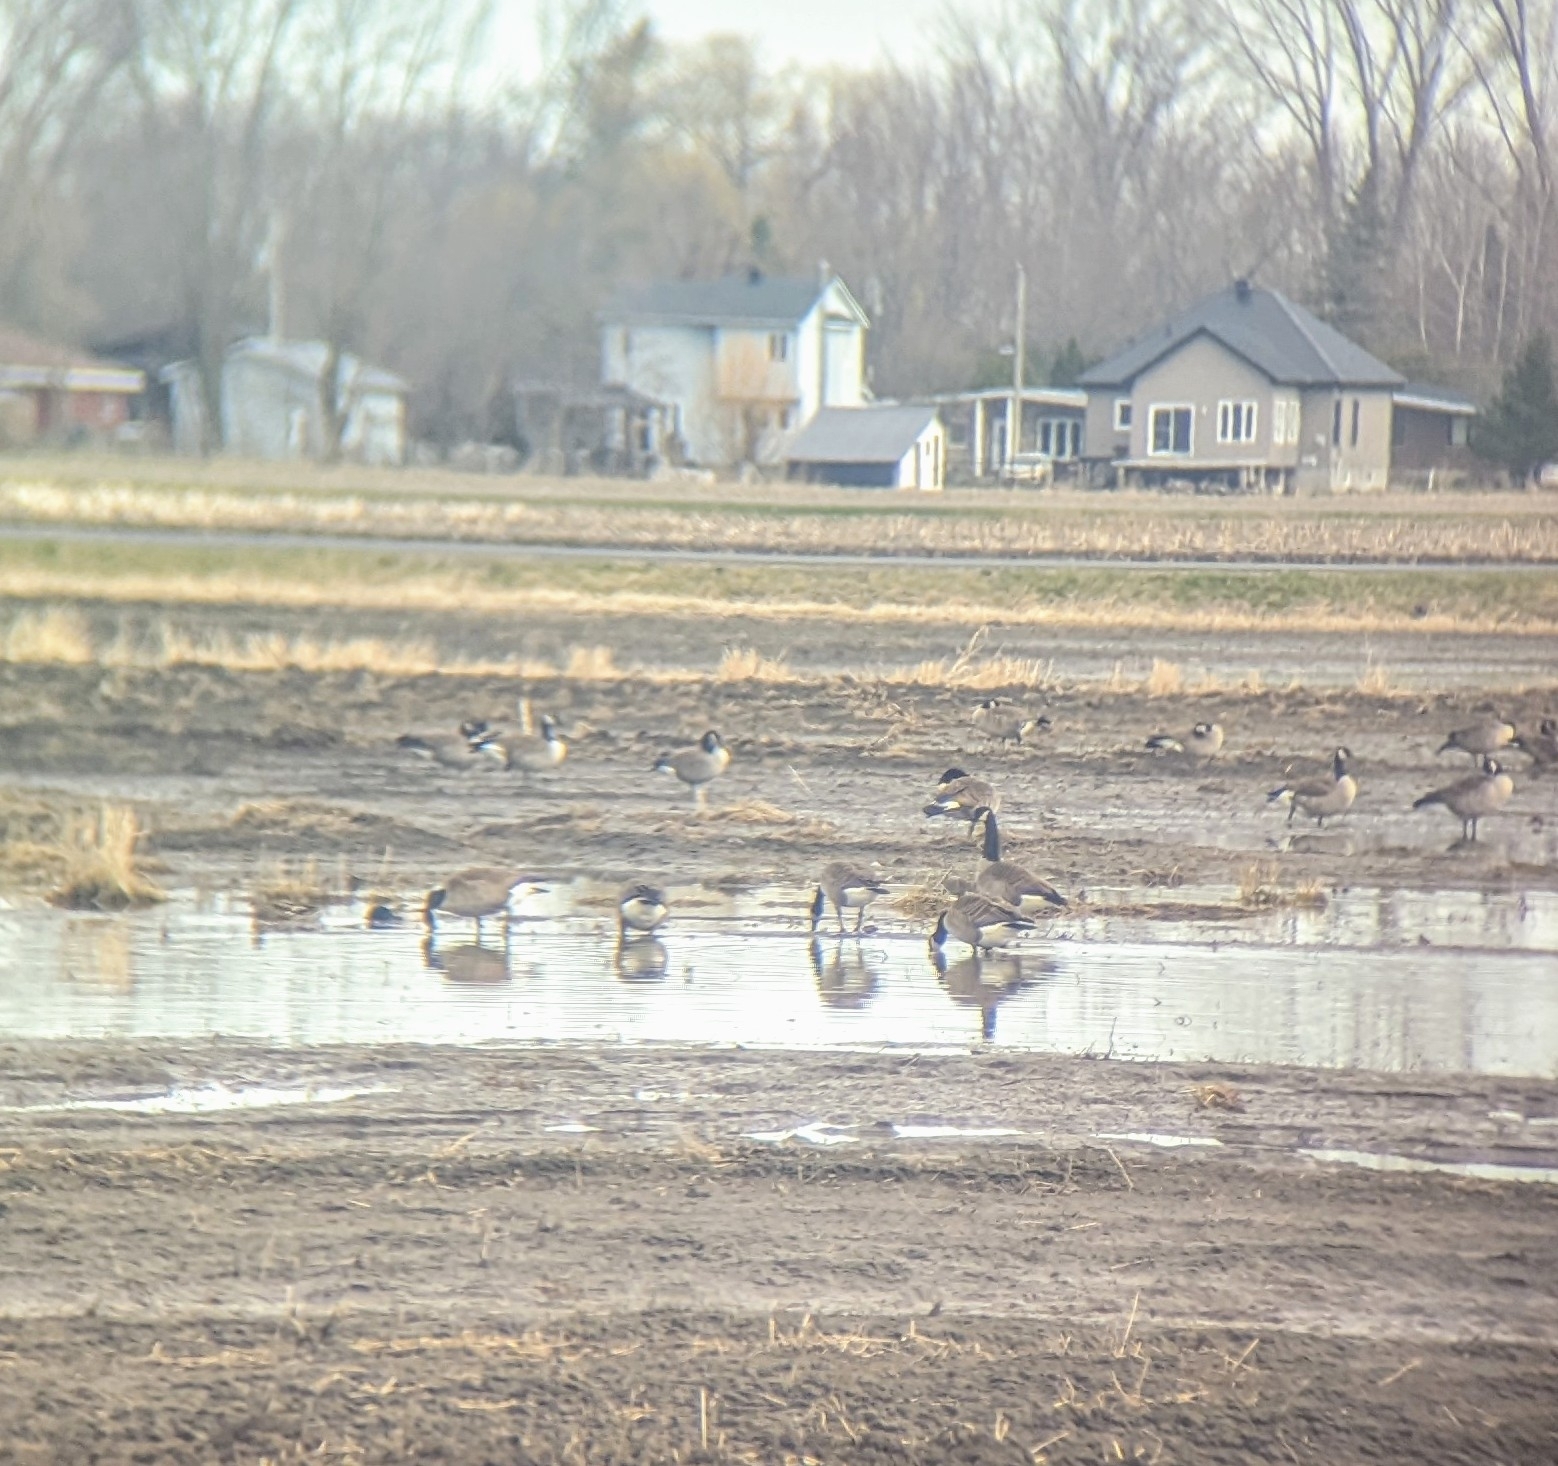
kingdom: Animalia
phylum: Chordata
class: Aves
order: Anseriformes
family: Anatidae
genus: Branta
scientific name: Branta canadensis
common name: Canada goose
